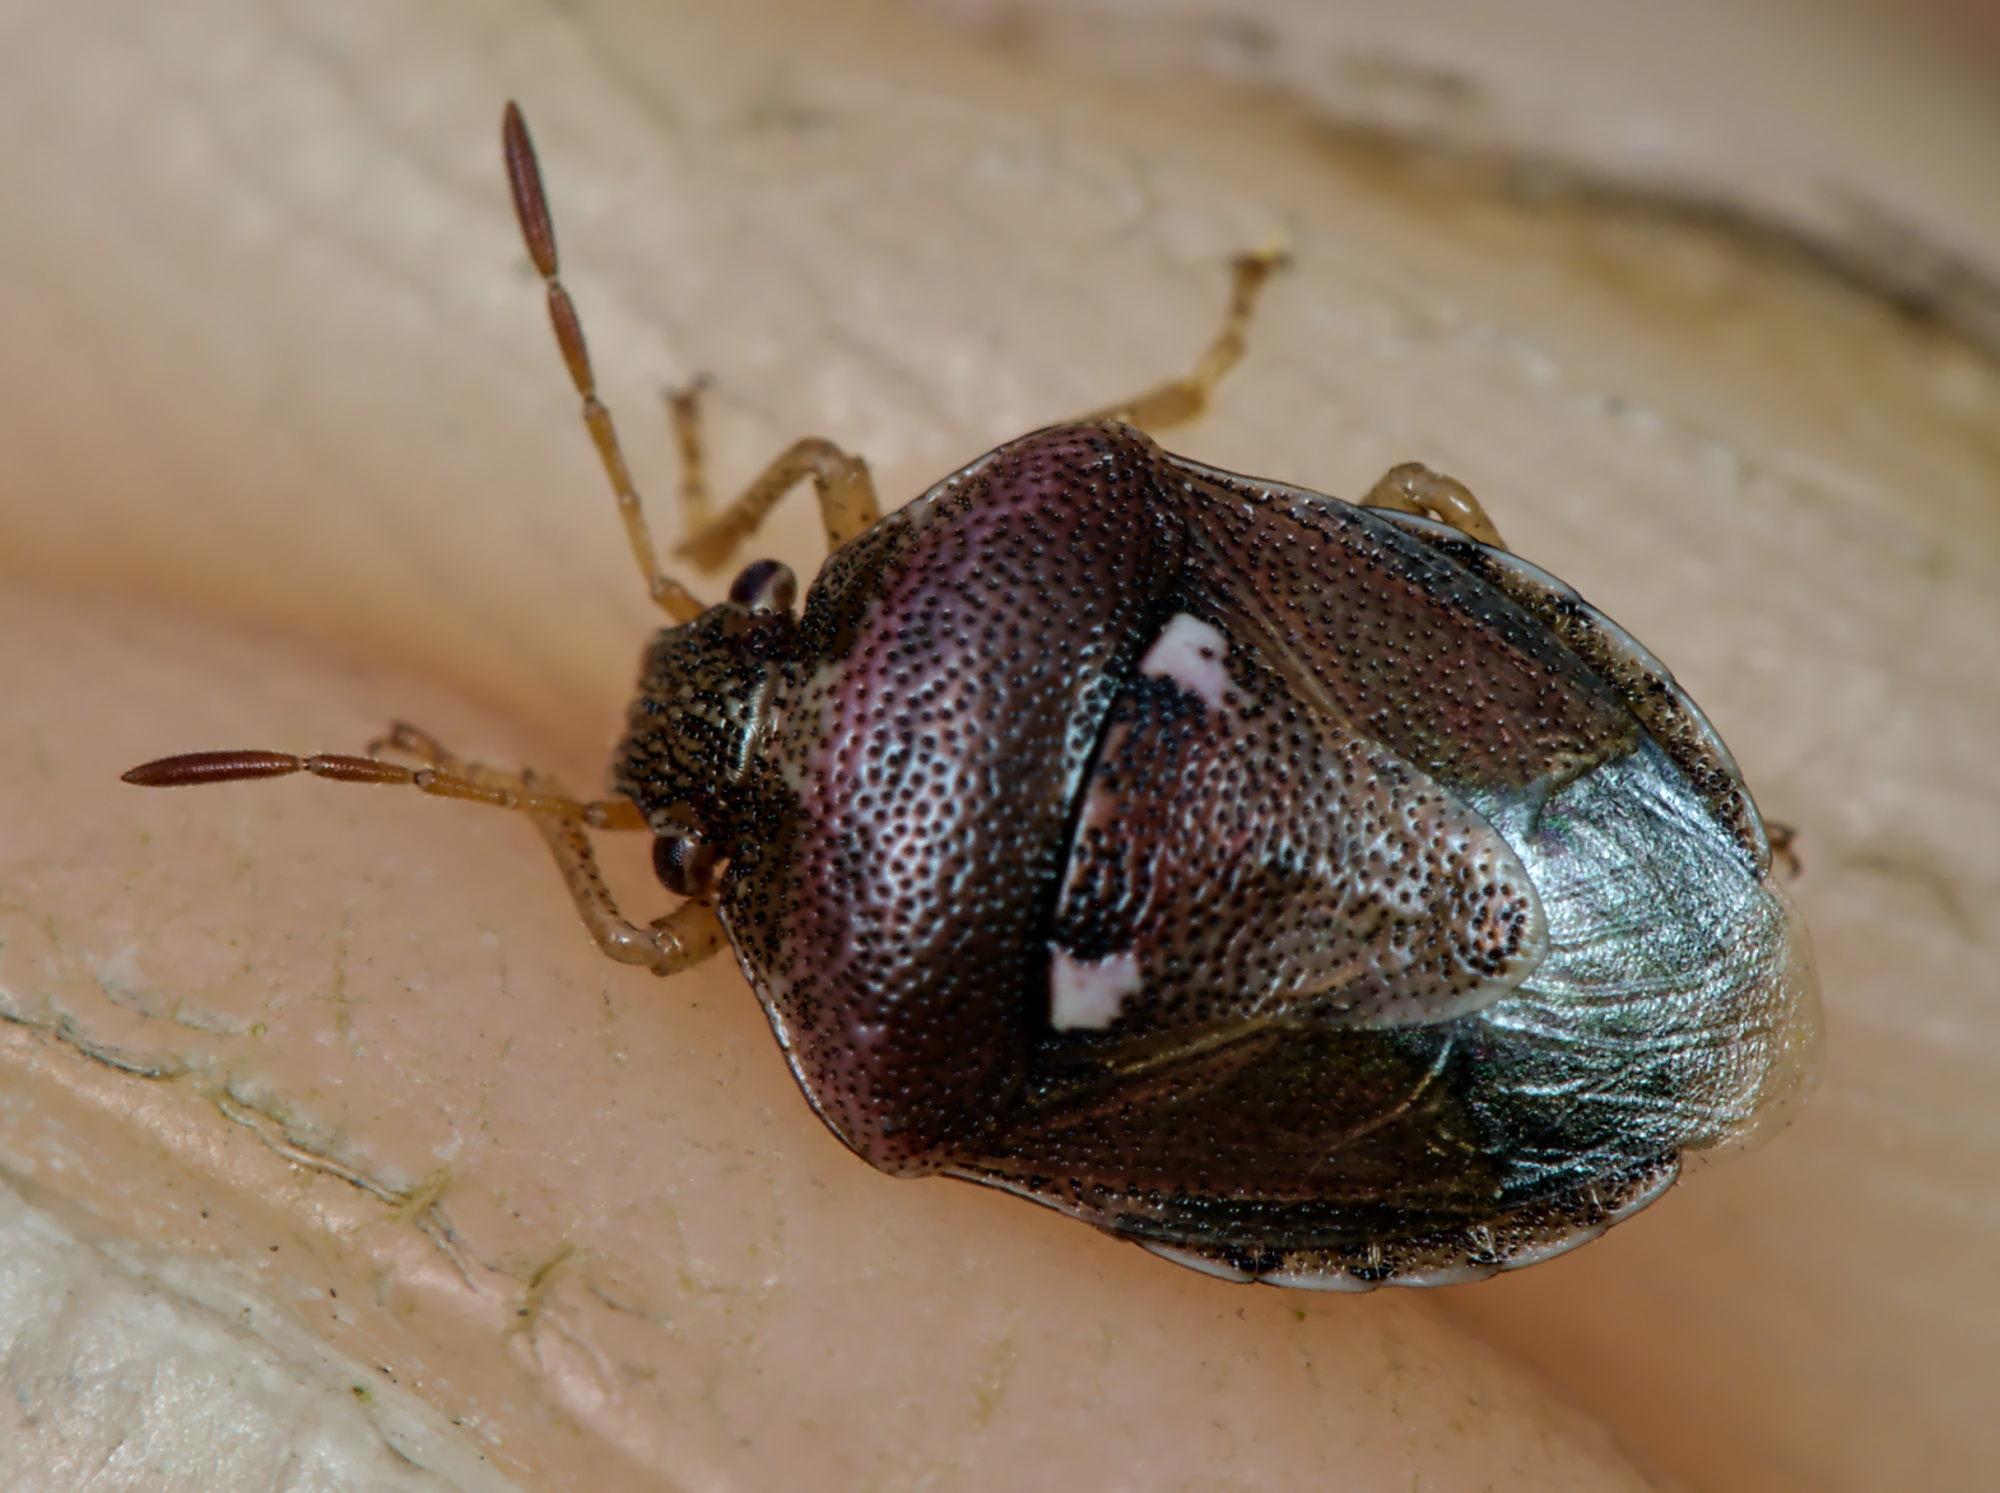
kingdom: Animalia
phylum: Arthropoda
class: Insecta
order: Hemiptera
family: Pentatomidae
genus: Stagonomus
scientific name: Stagonomus bipunctatus
